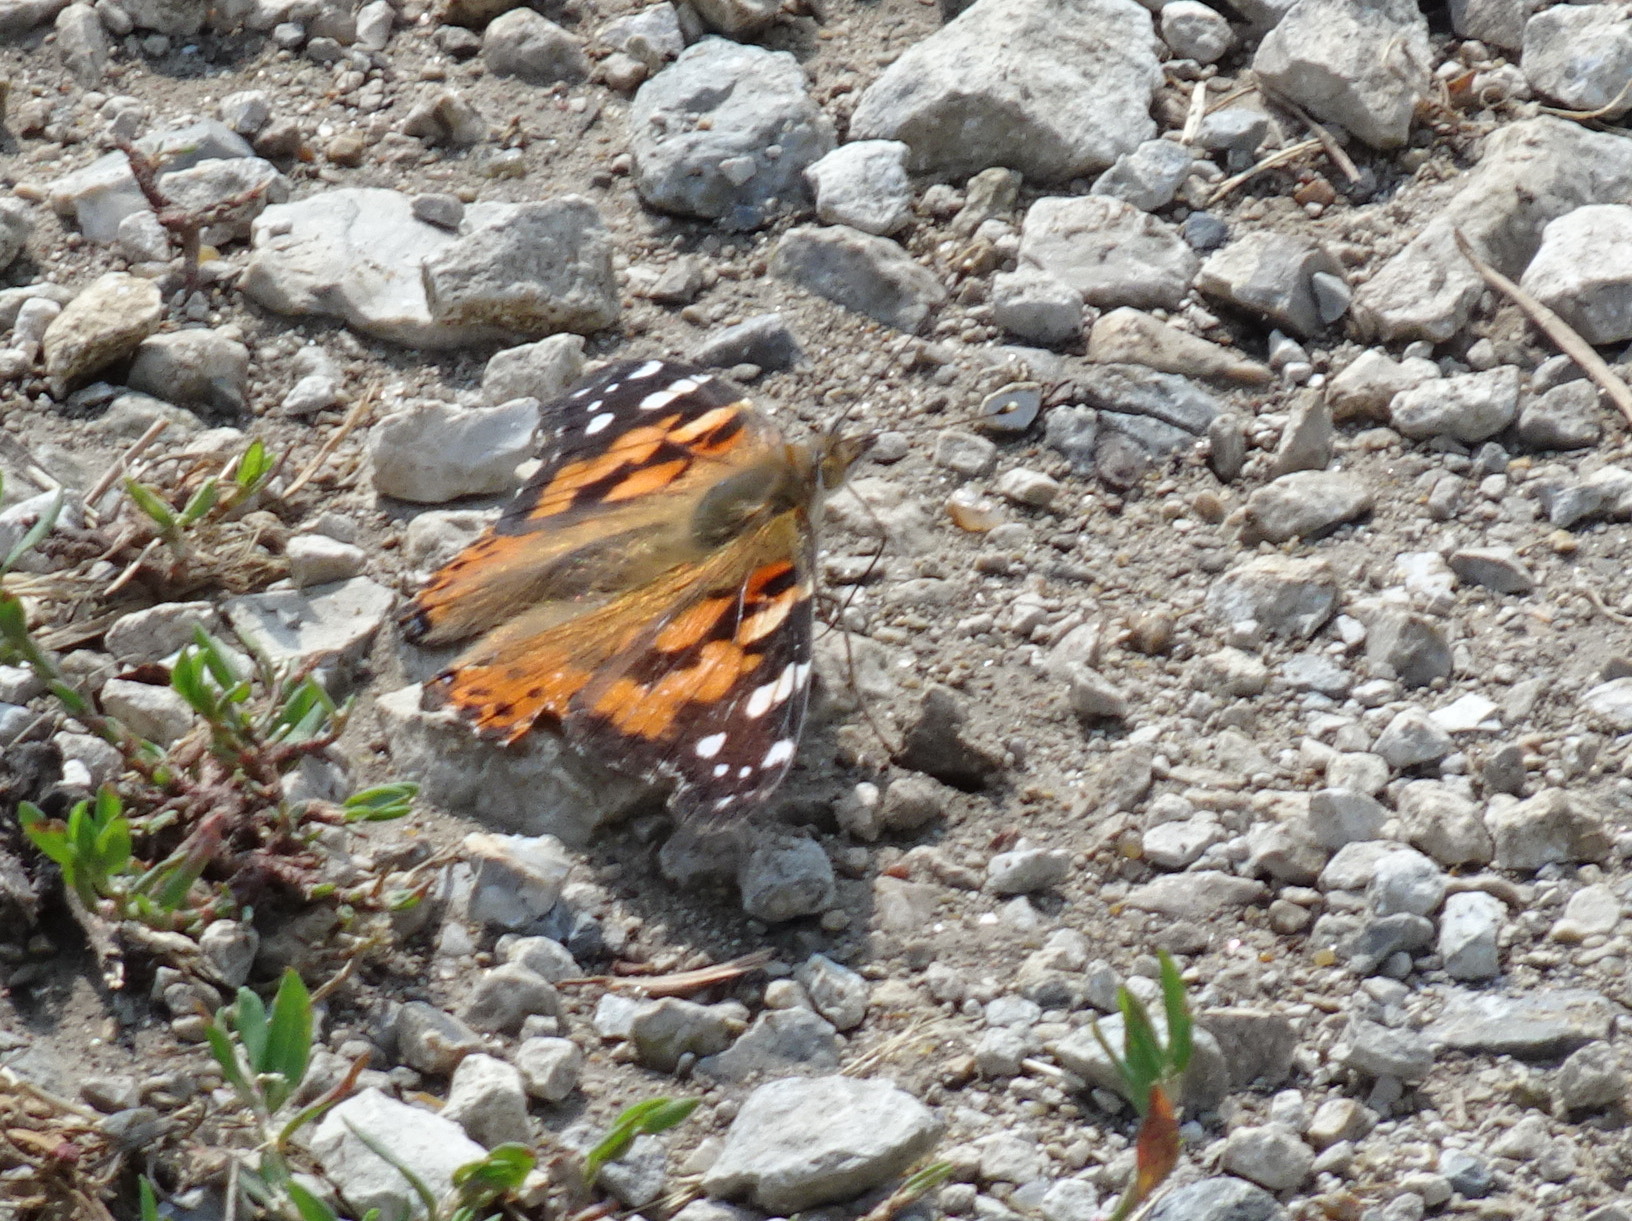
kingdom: Animalia
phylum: Arthropoda
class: Insecta
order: Lepidoptera
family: Nymphalidae
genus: Vanessa
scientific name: Vanessa cardui
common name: Painted lady
